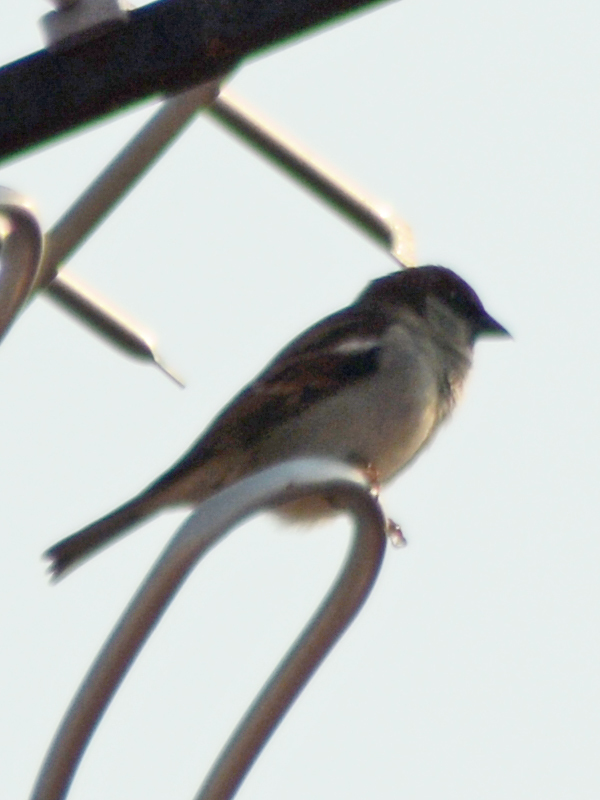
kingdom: Animalia
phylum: Chordata
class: Aves
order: Passeriformes
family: Passeridae
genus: Passer
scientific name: Passer domesticus
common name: House sparrow
